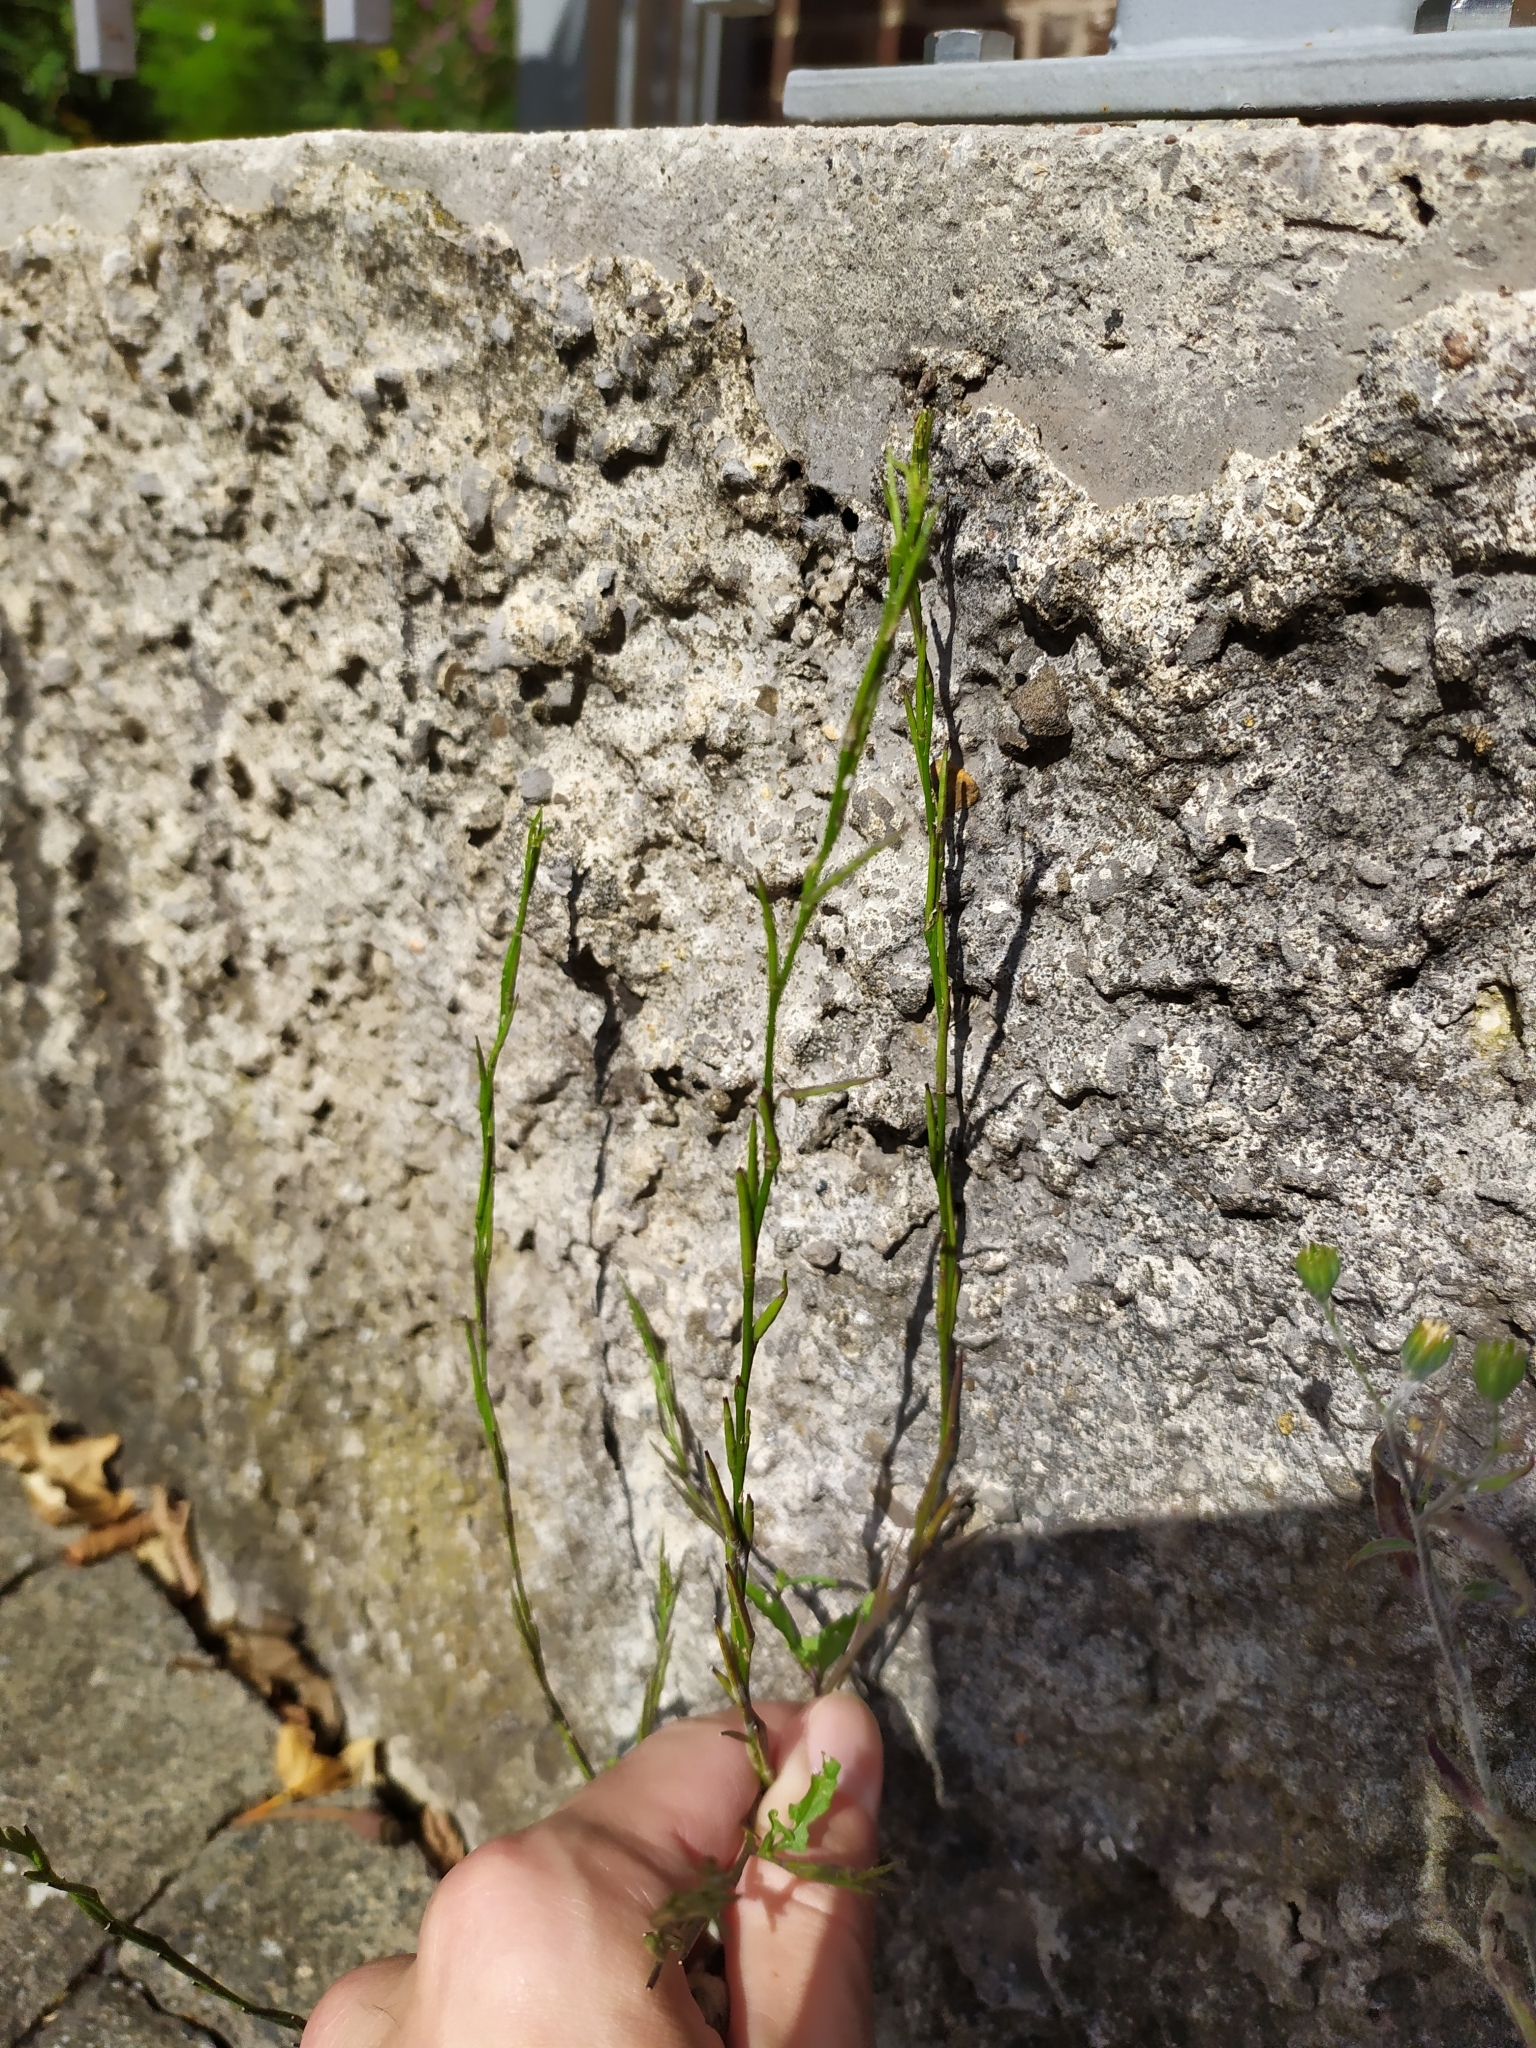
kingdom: Plantae
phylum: Tracheophyta
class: Magnoliopsida
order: Brassicales
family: Brassicaceae
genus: Sisymbrium
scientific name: Sisymbrium officinale
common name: Hedge mustard
